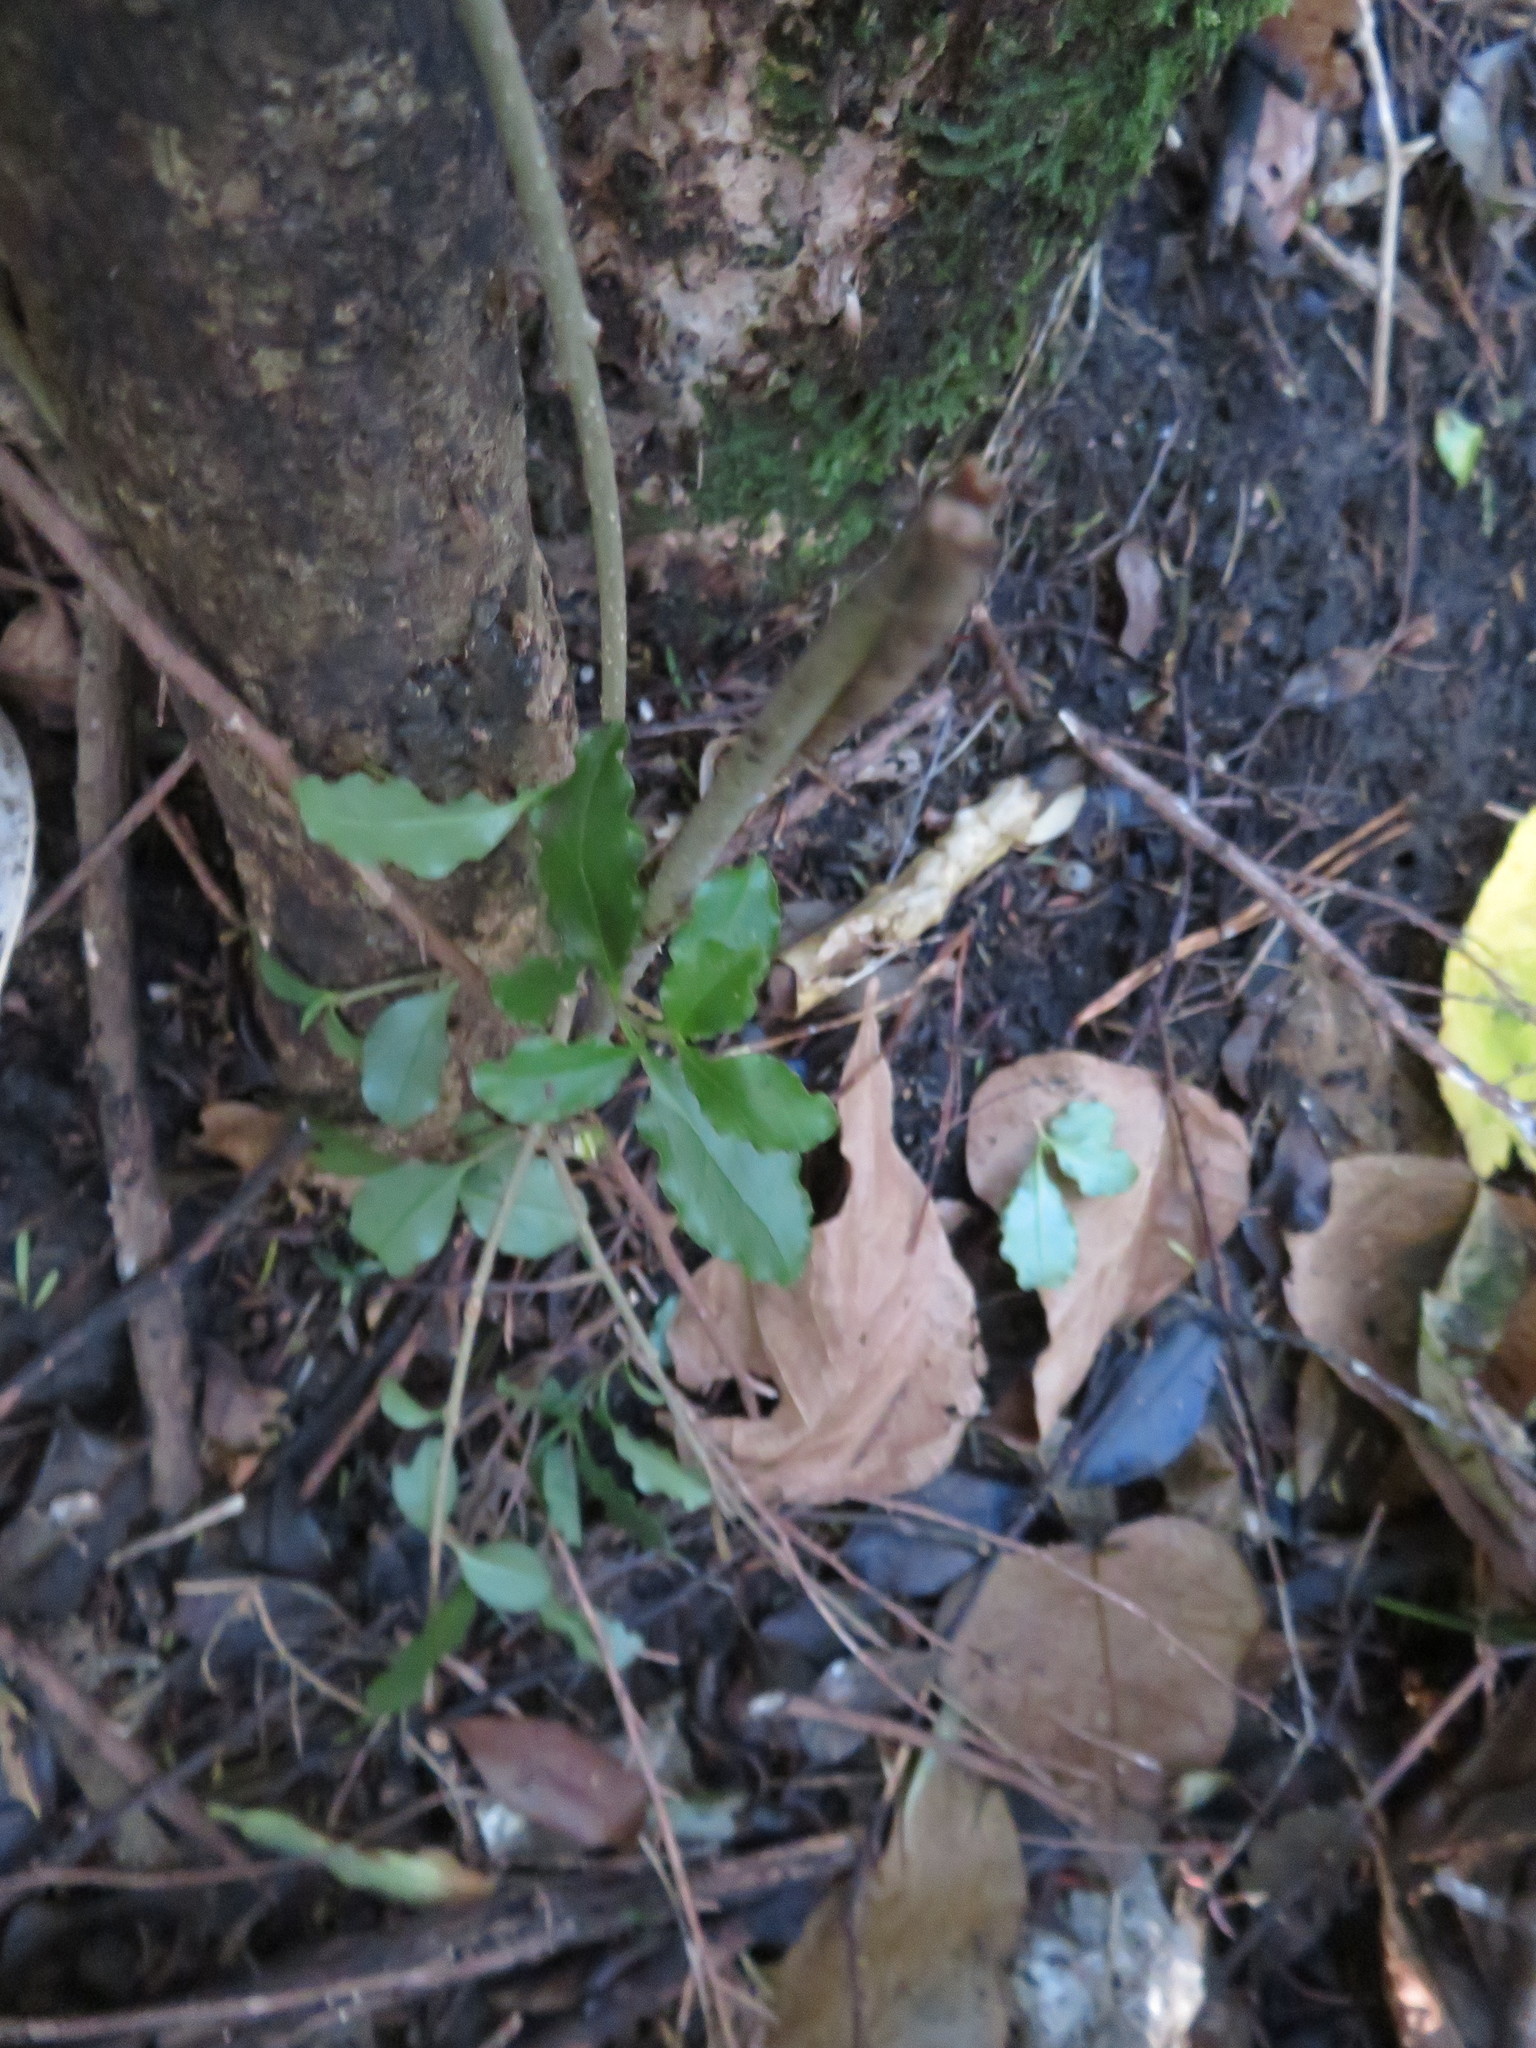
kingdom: Plantae
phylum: Tracheophyta
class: Magnoliopsida
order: Lamiales
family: Oleaceae
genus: Ligustrum
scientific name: Ligustrum sinense
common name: Chinese privet
